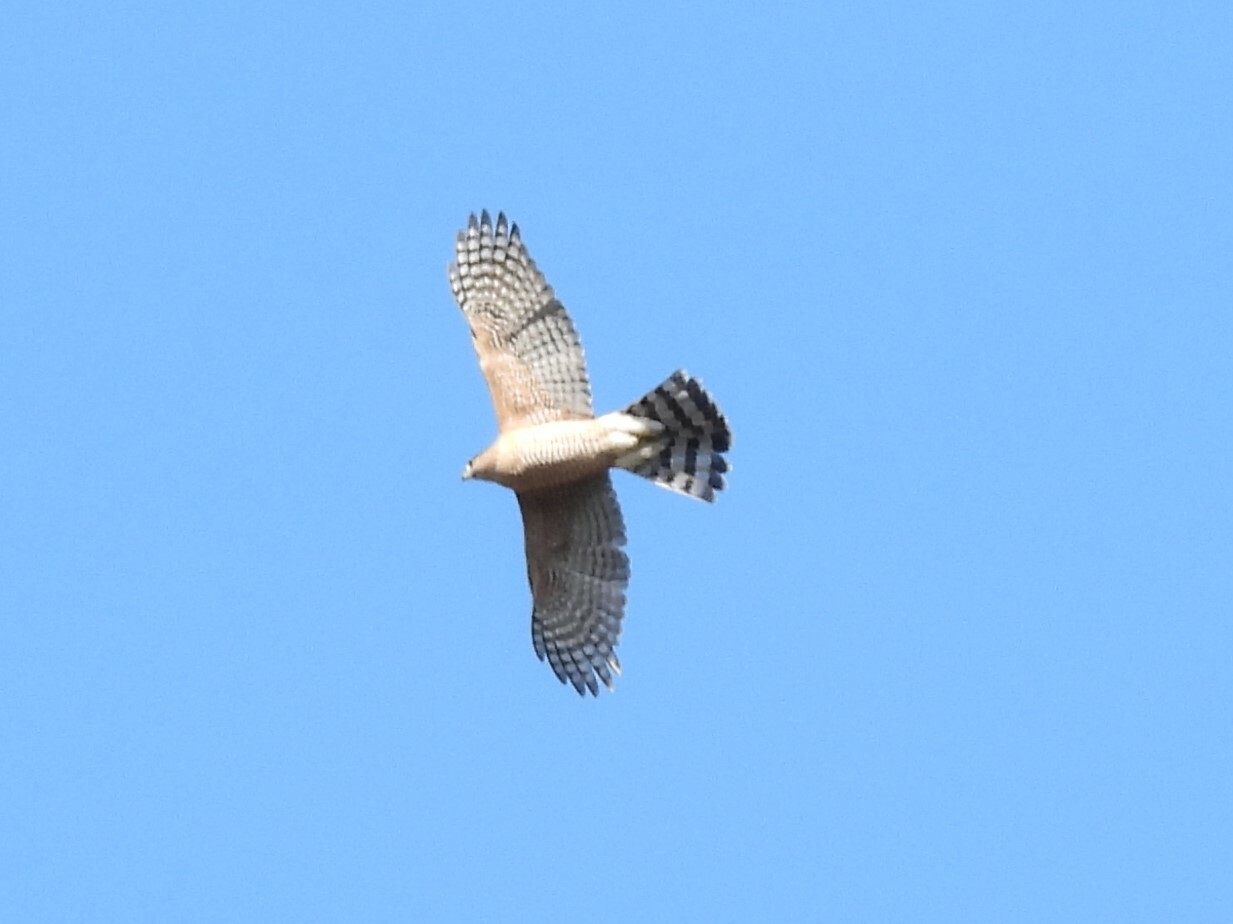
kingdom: Animalia
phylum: Chordata
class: Aves
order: Accipitriformes
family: Accipitridae
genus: Accipiter
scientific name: Accipiter cooperii
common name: Cooper's hawk
